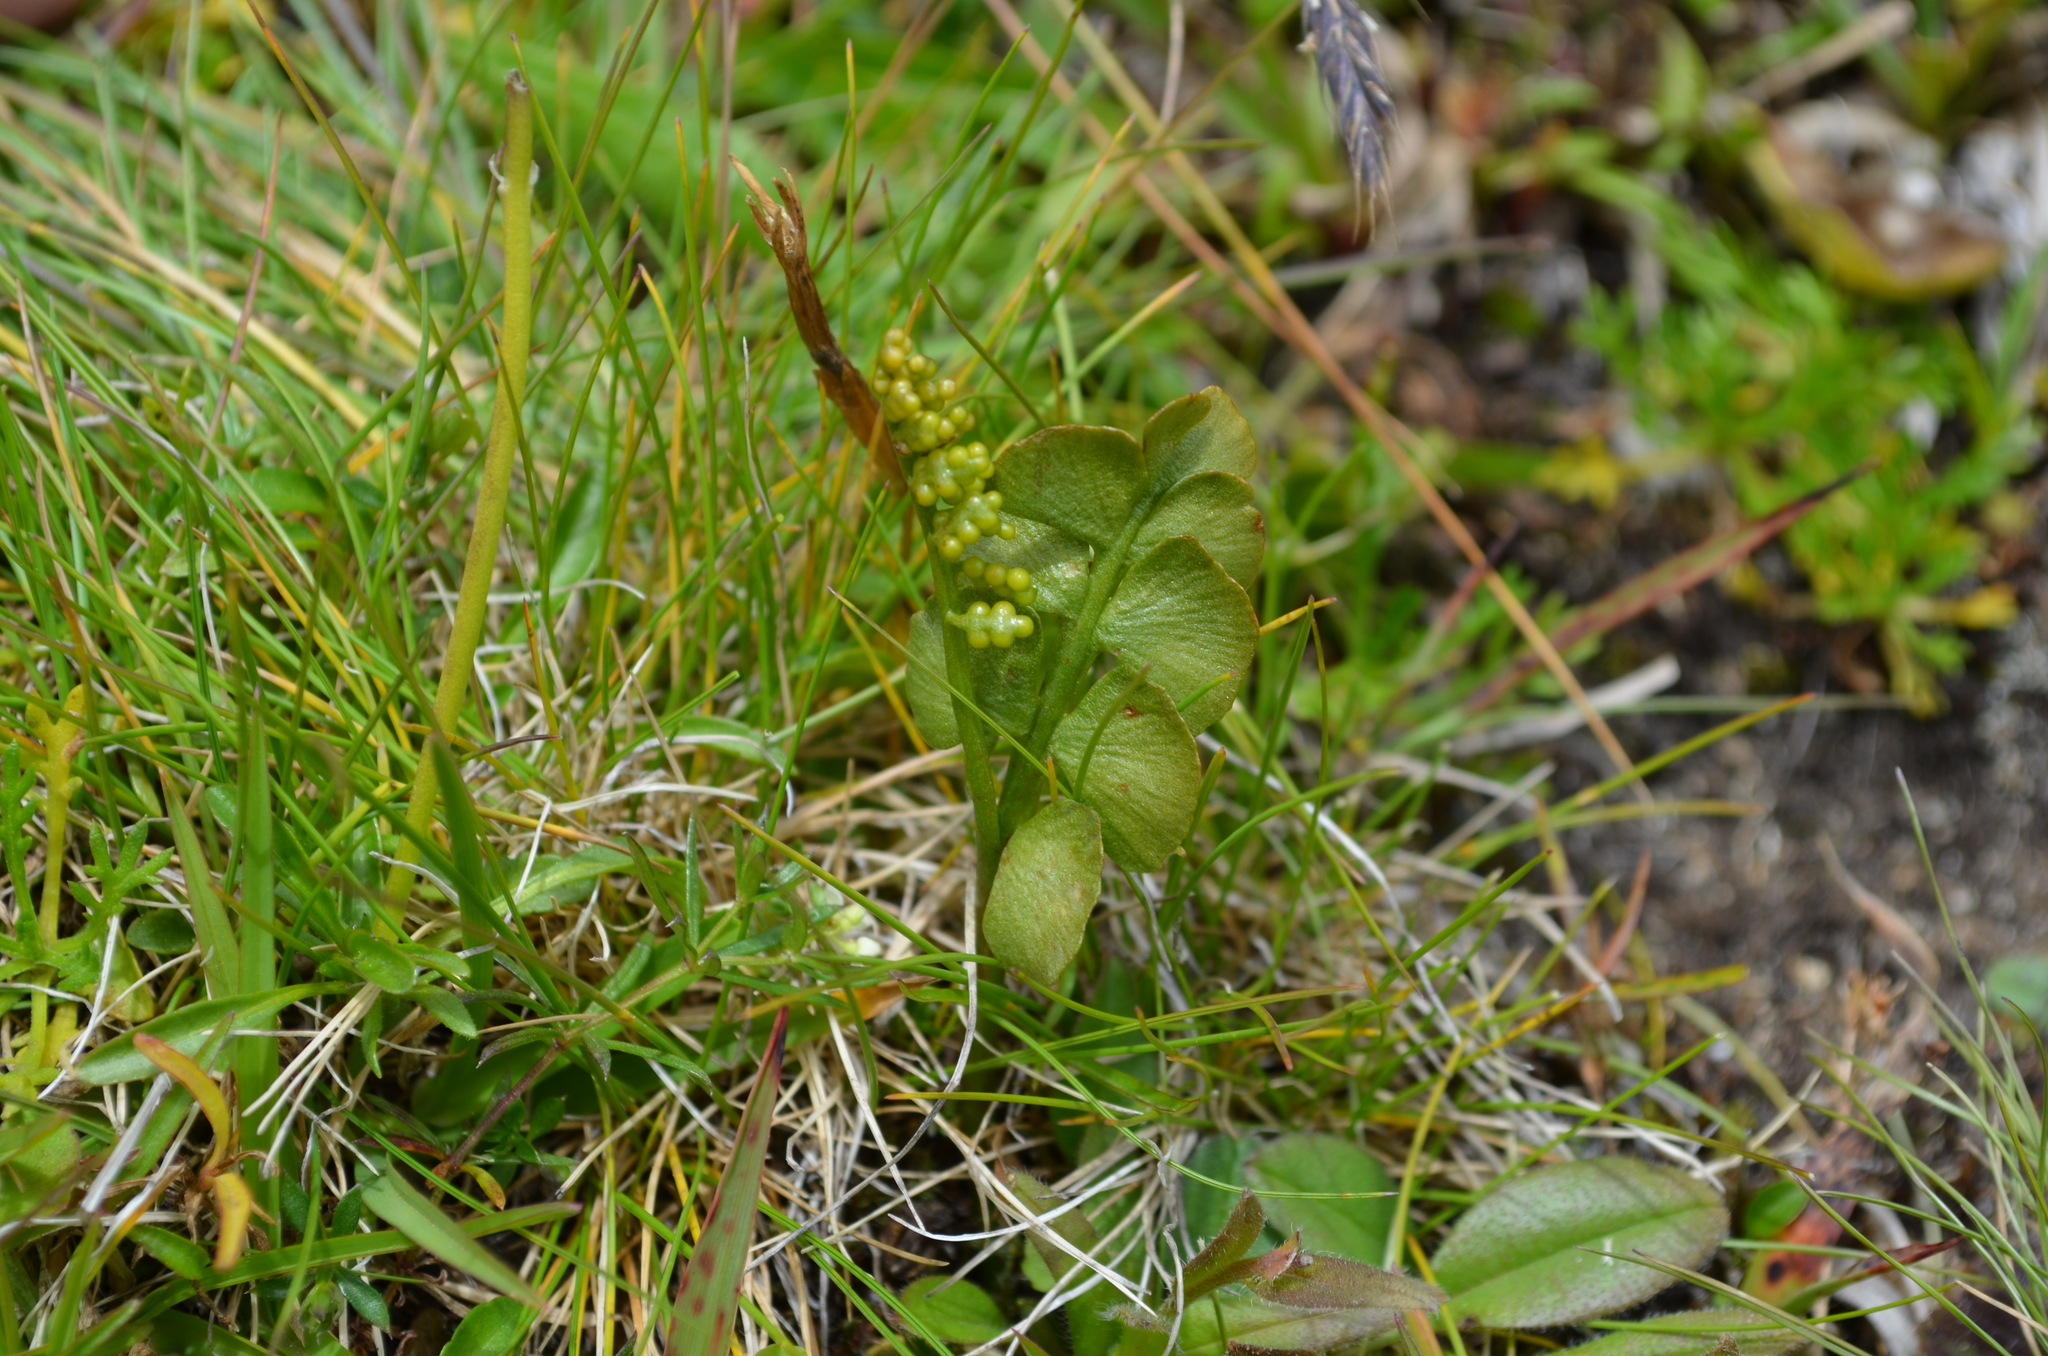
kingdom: Plantae
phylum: Tracheophyta
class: Polypodiopsida
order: Ophioglossales
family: Ophioglossaceae
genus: Botrychium
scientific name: Botrychium lunaria
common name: Moonwort
